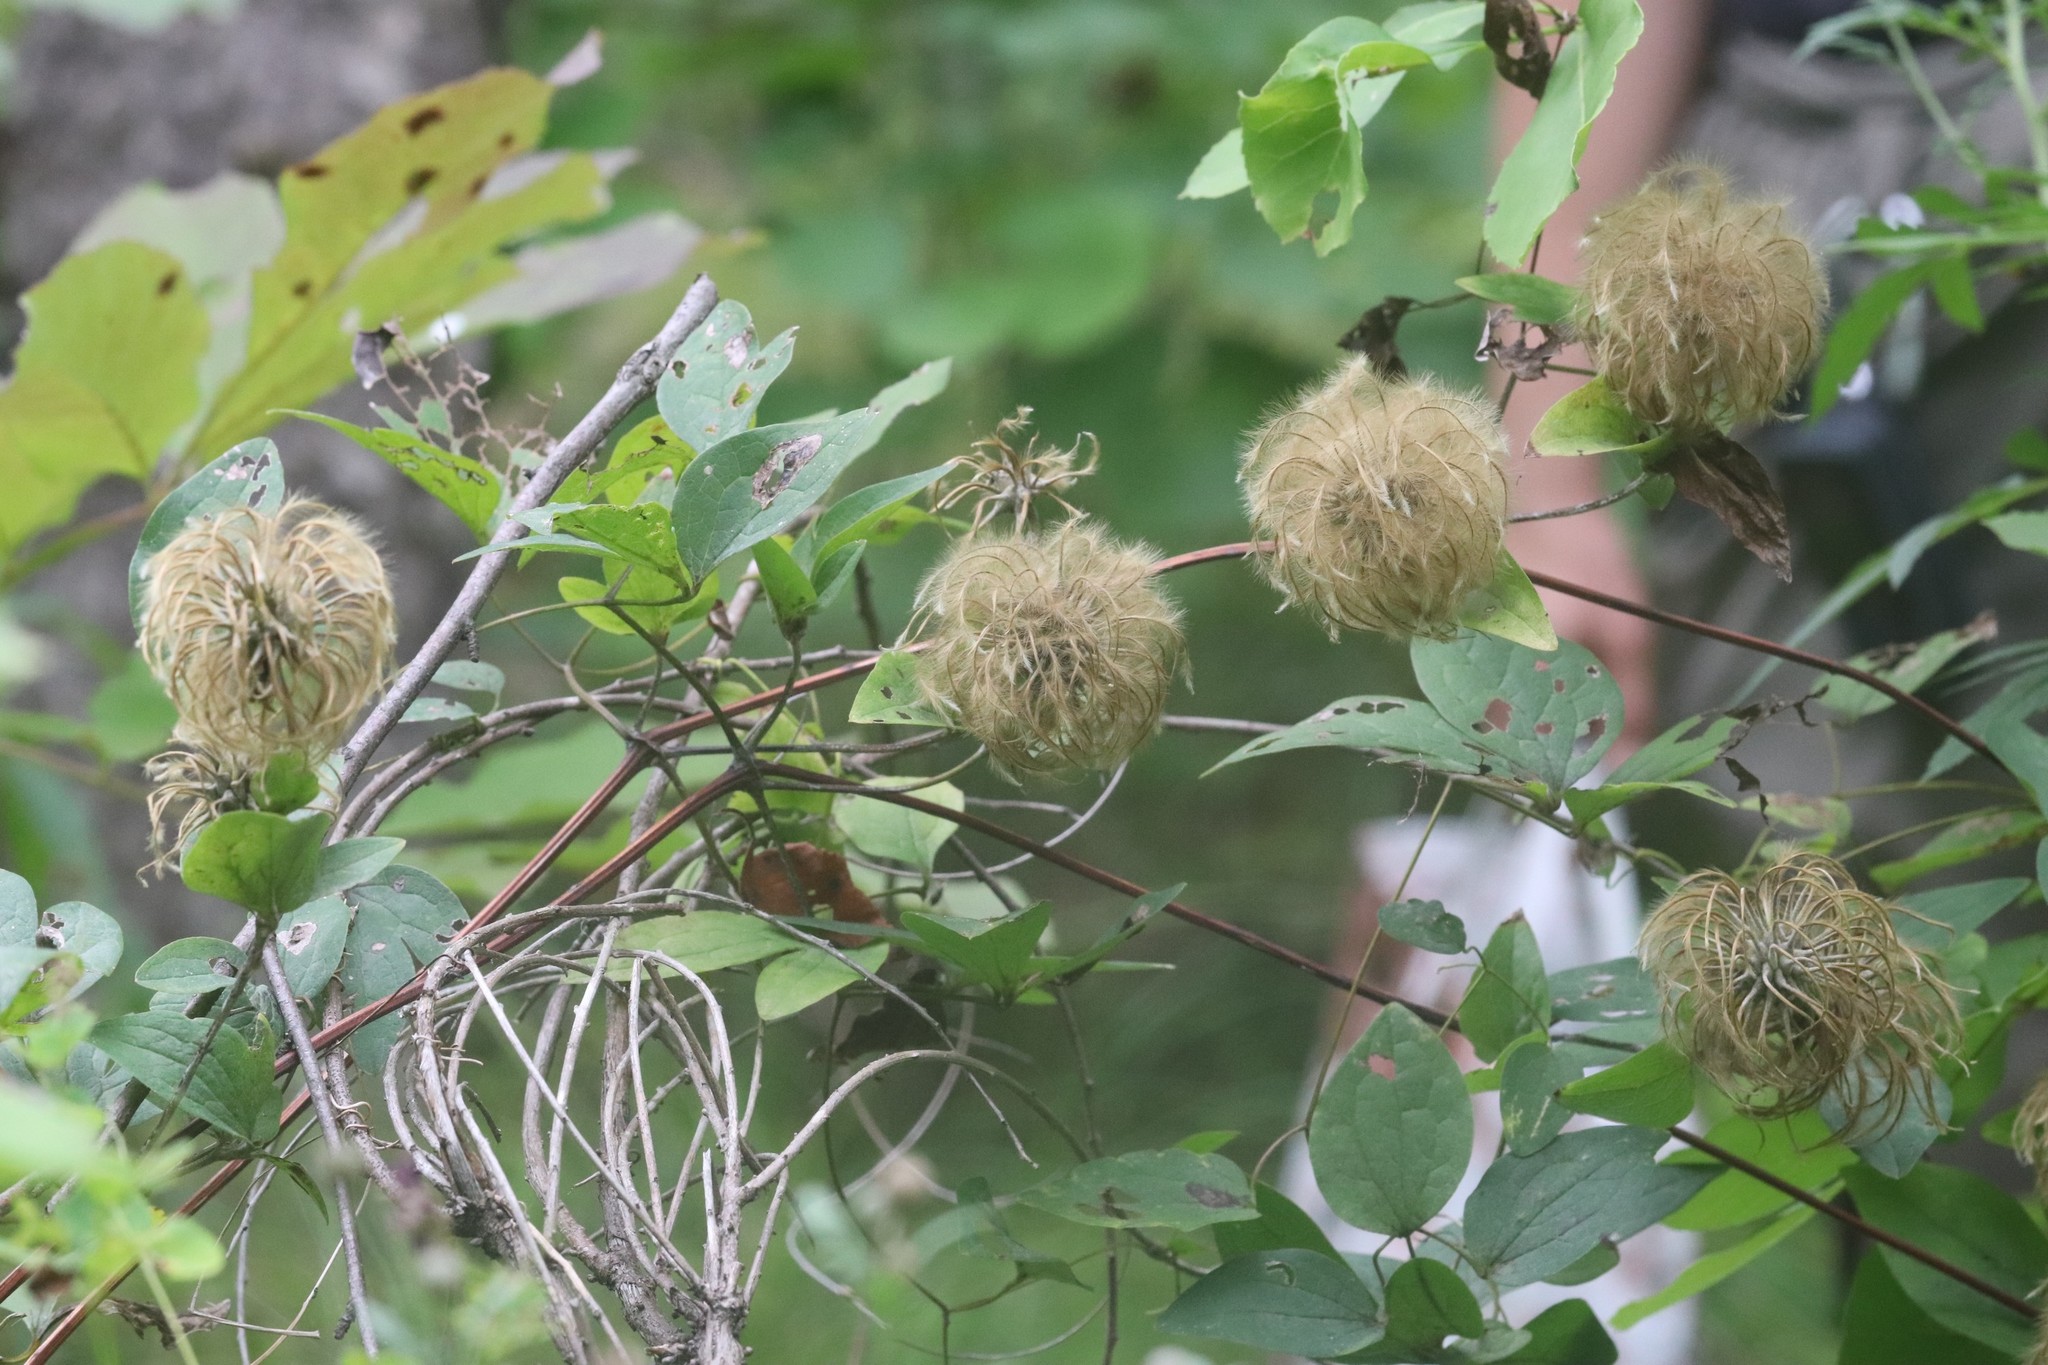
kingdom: Plantae
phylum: Tracheophyta
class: Magnoliopsida
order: Ranunculales
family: Ranunculaceae
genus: Clematis
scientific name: Clematis fusca
